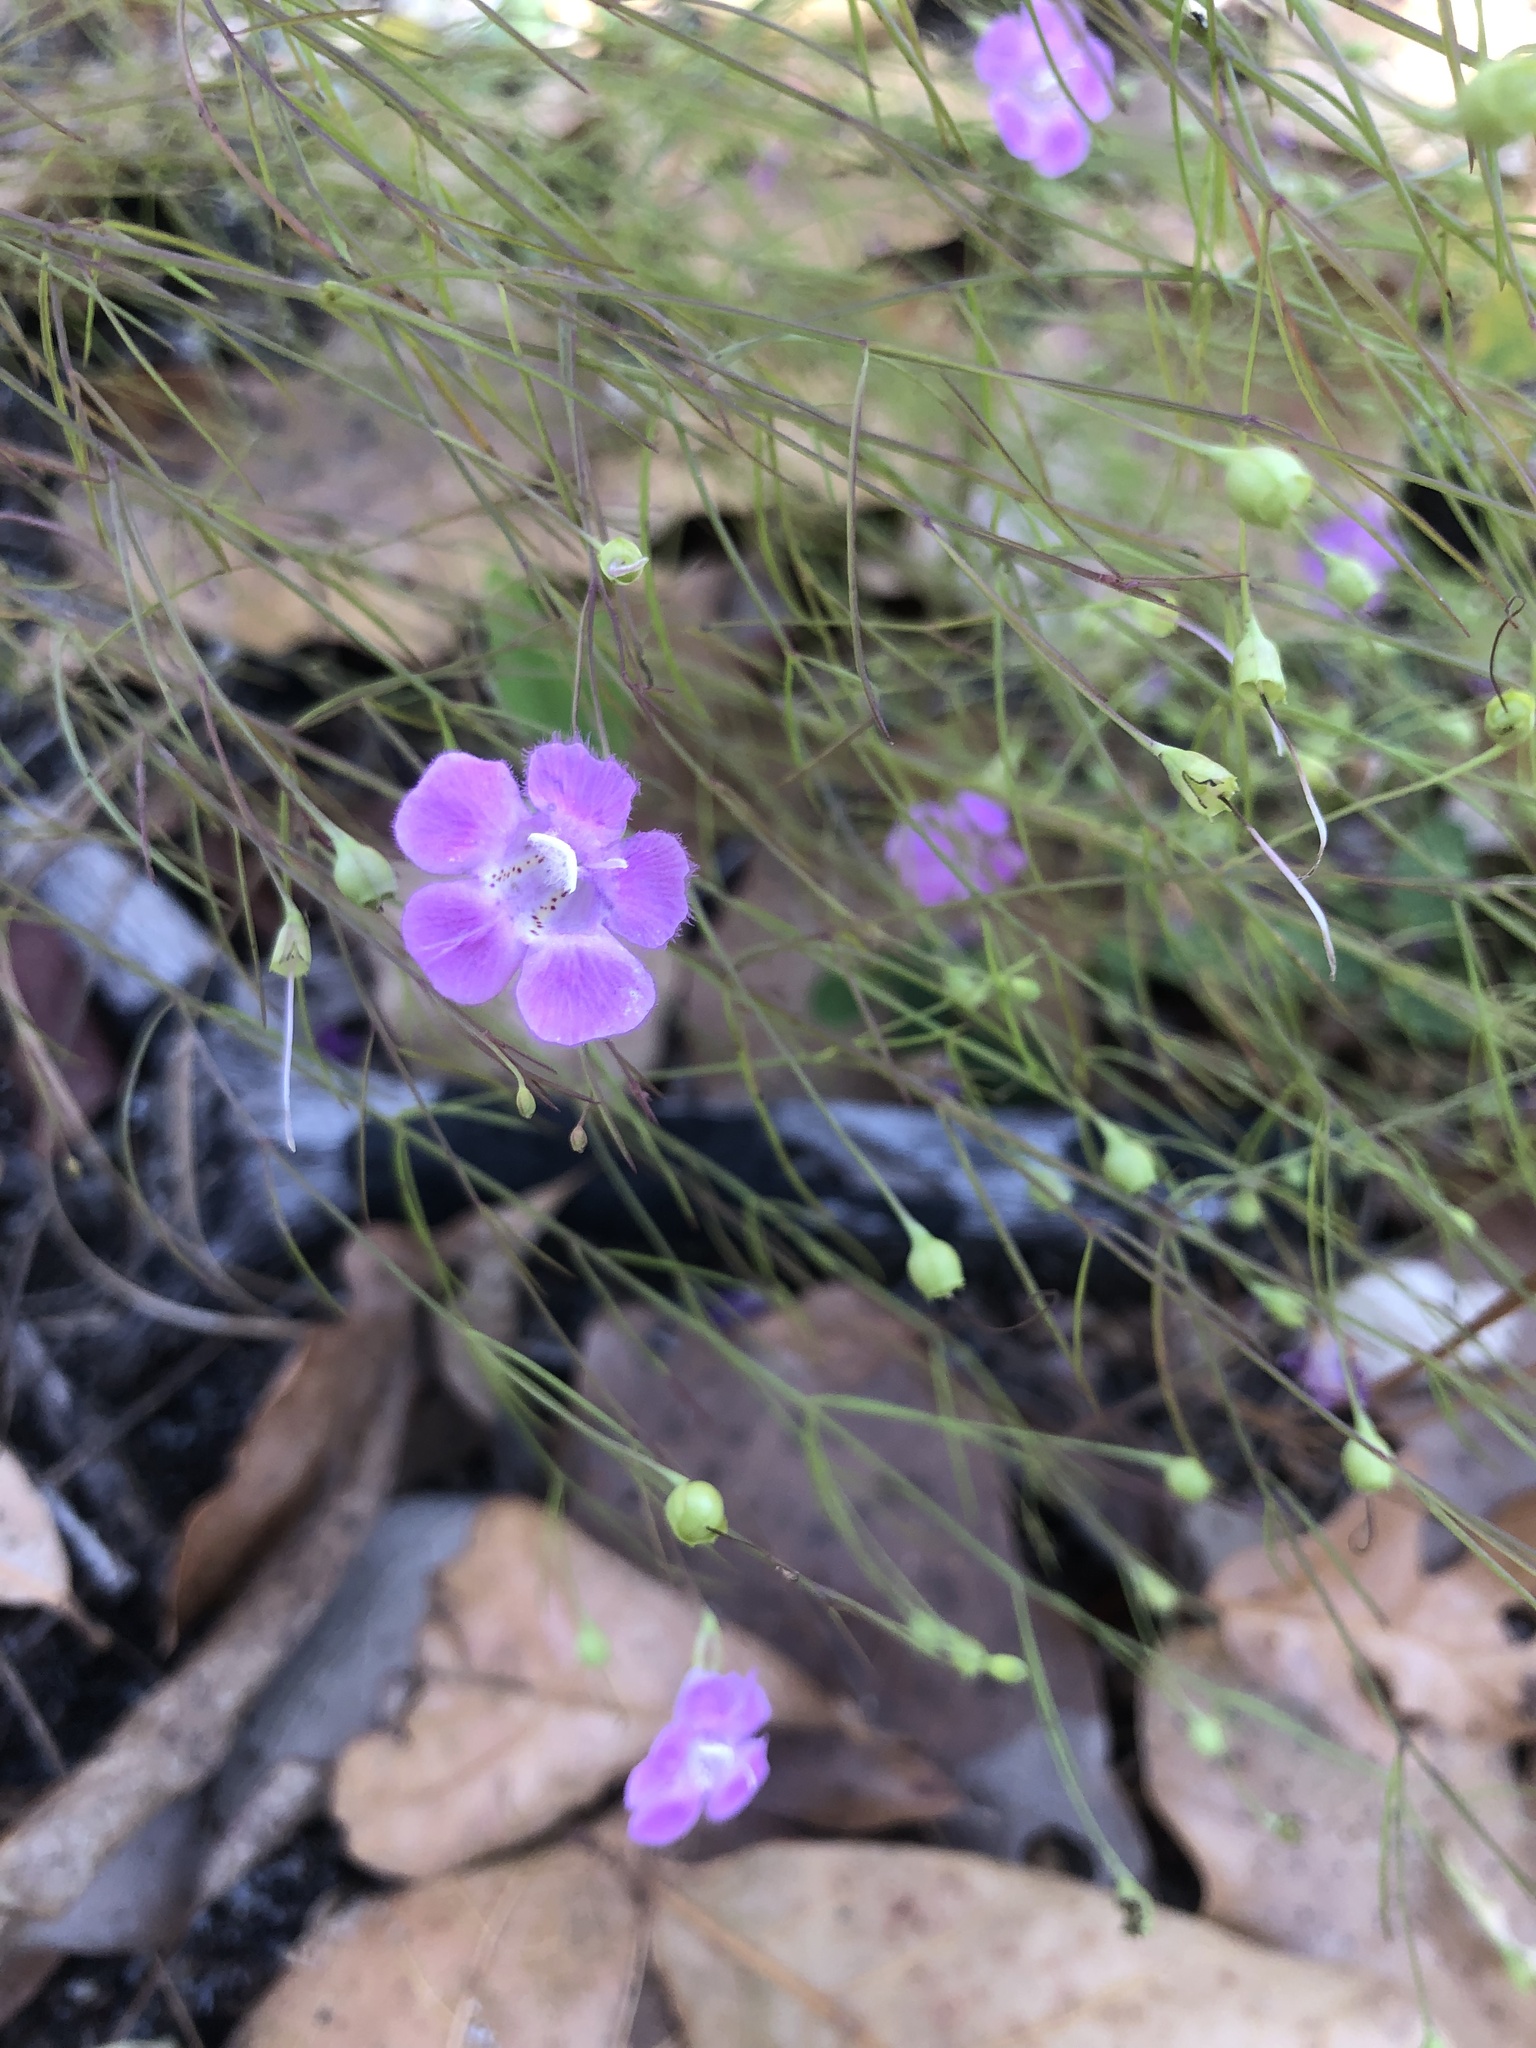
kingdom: Plantae
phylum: Tracheophyta
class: Magnoliopsida
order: Lamiales
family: Orobanchaceae
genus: Agalinis
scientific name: Agalinis setacea
